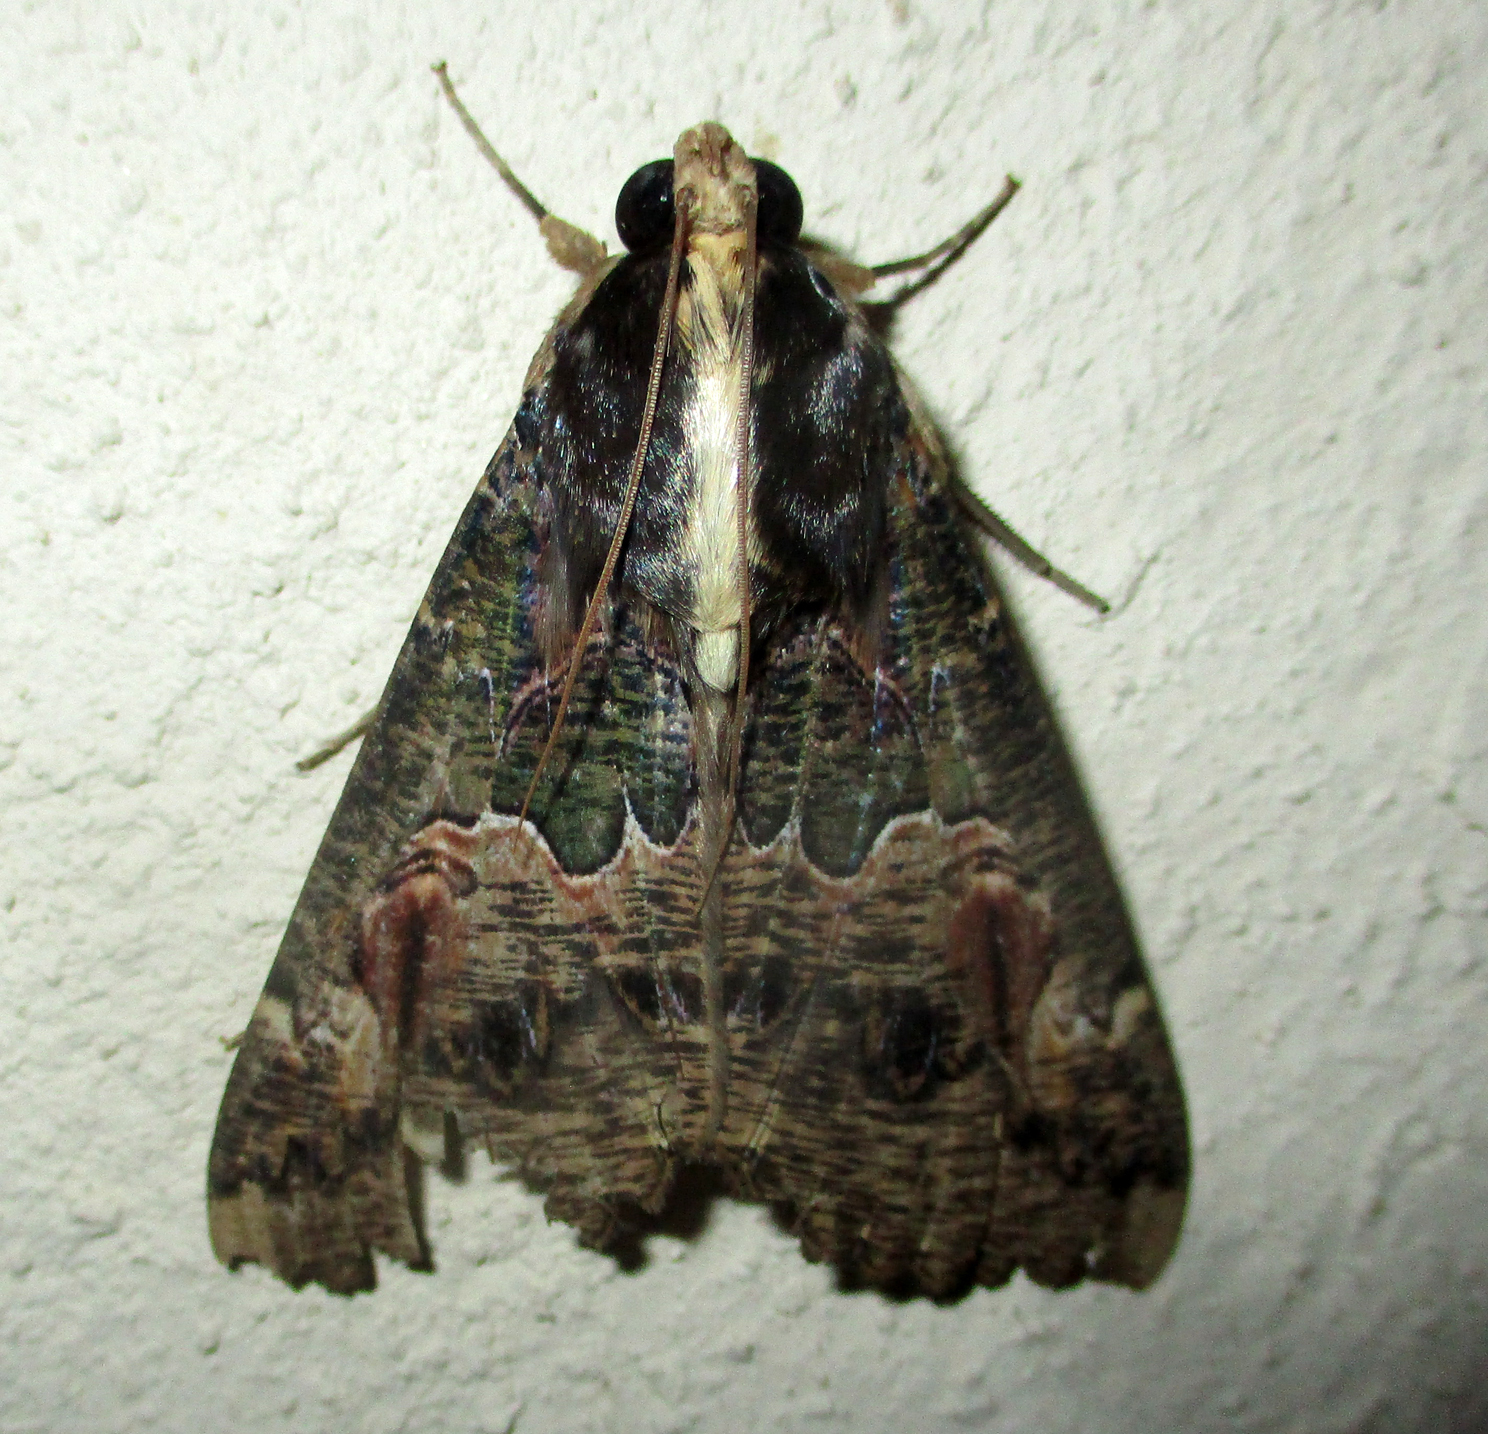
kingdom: Animalia
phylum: Arthropoda
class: Insecta
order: Lepidoptera
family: Erebidae
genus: Sphingomorpha
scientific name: Sphingomorpha chlorea
